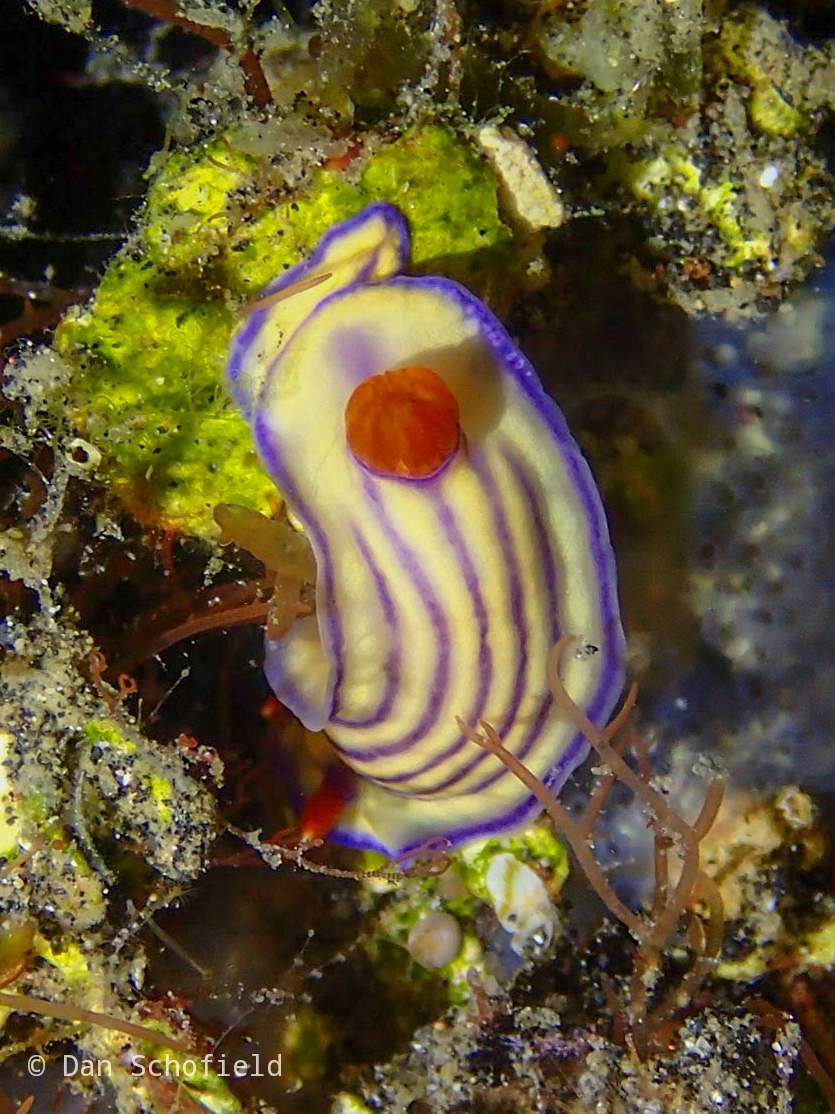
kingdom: Animalia
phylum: Mollusca
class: Gastropoda
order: Nudibranchia
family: Chromodorididae
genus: Hypselodoris
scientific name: Hypselodoris emma
